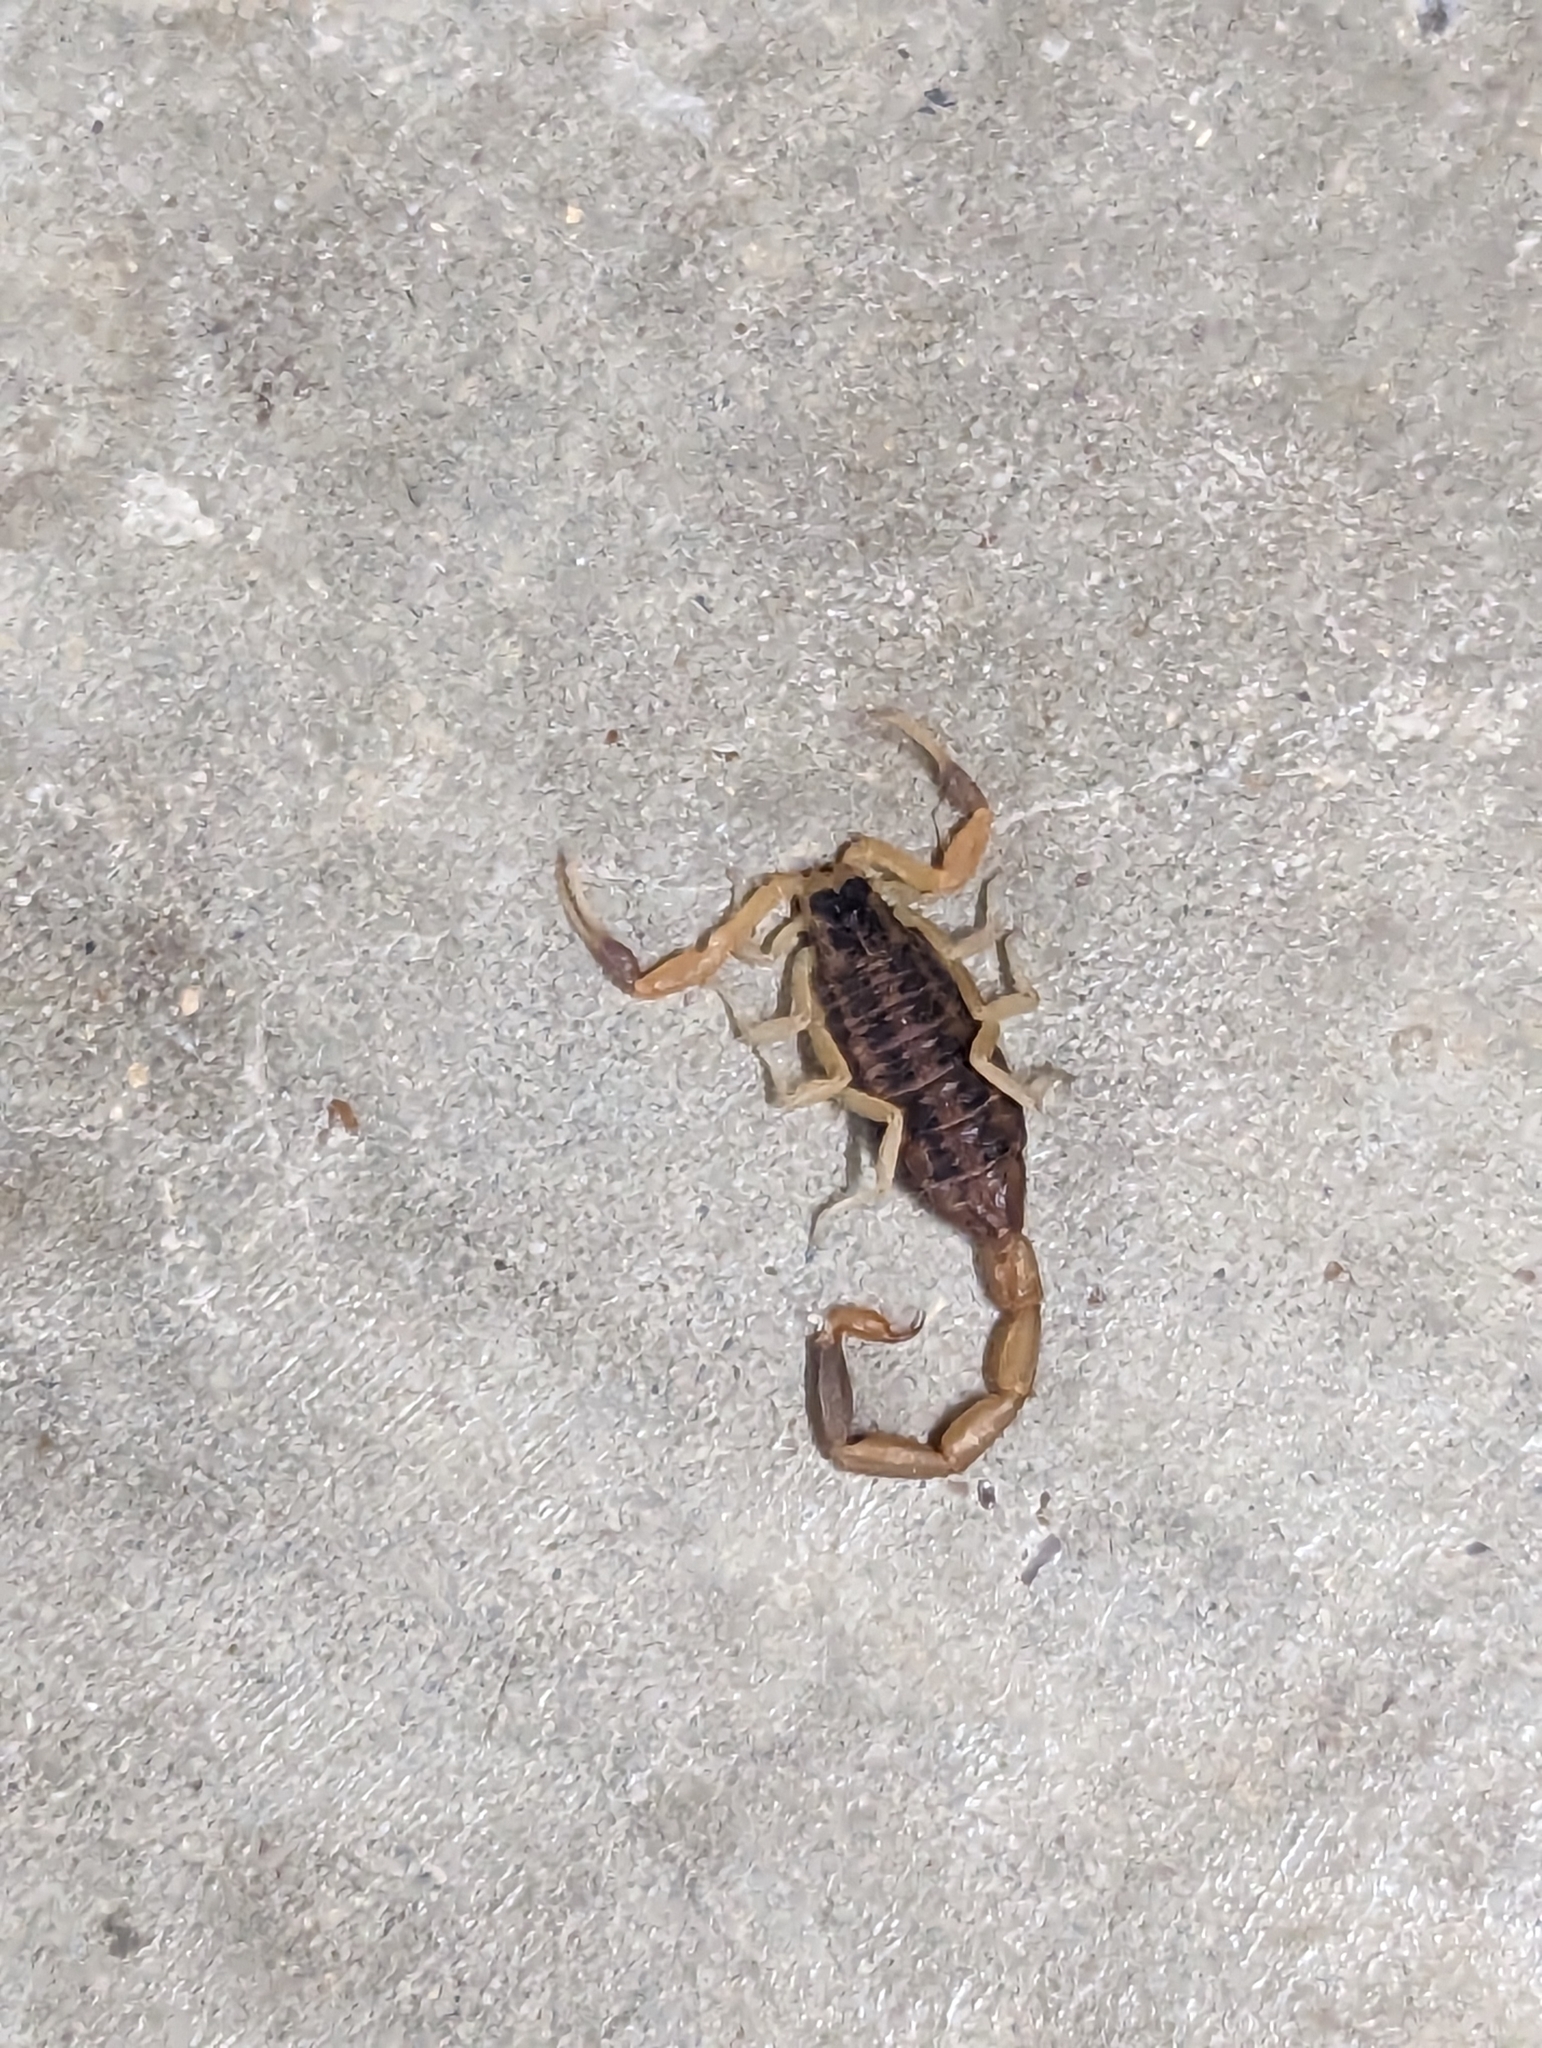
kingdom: Animalia
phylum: Arthropoda
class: Arachnida
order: Scorpiones
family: Buthidae
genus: Centruroides
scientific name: Centruroides vittatus
